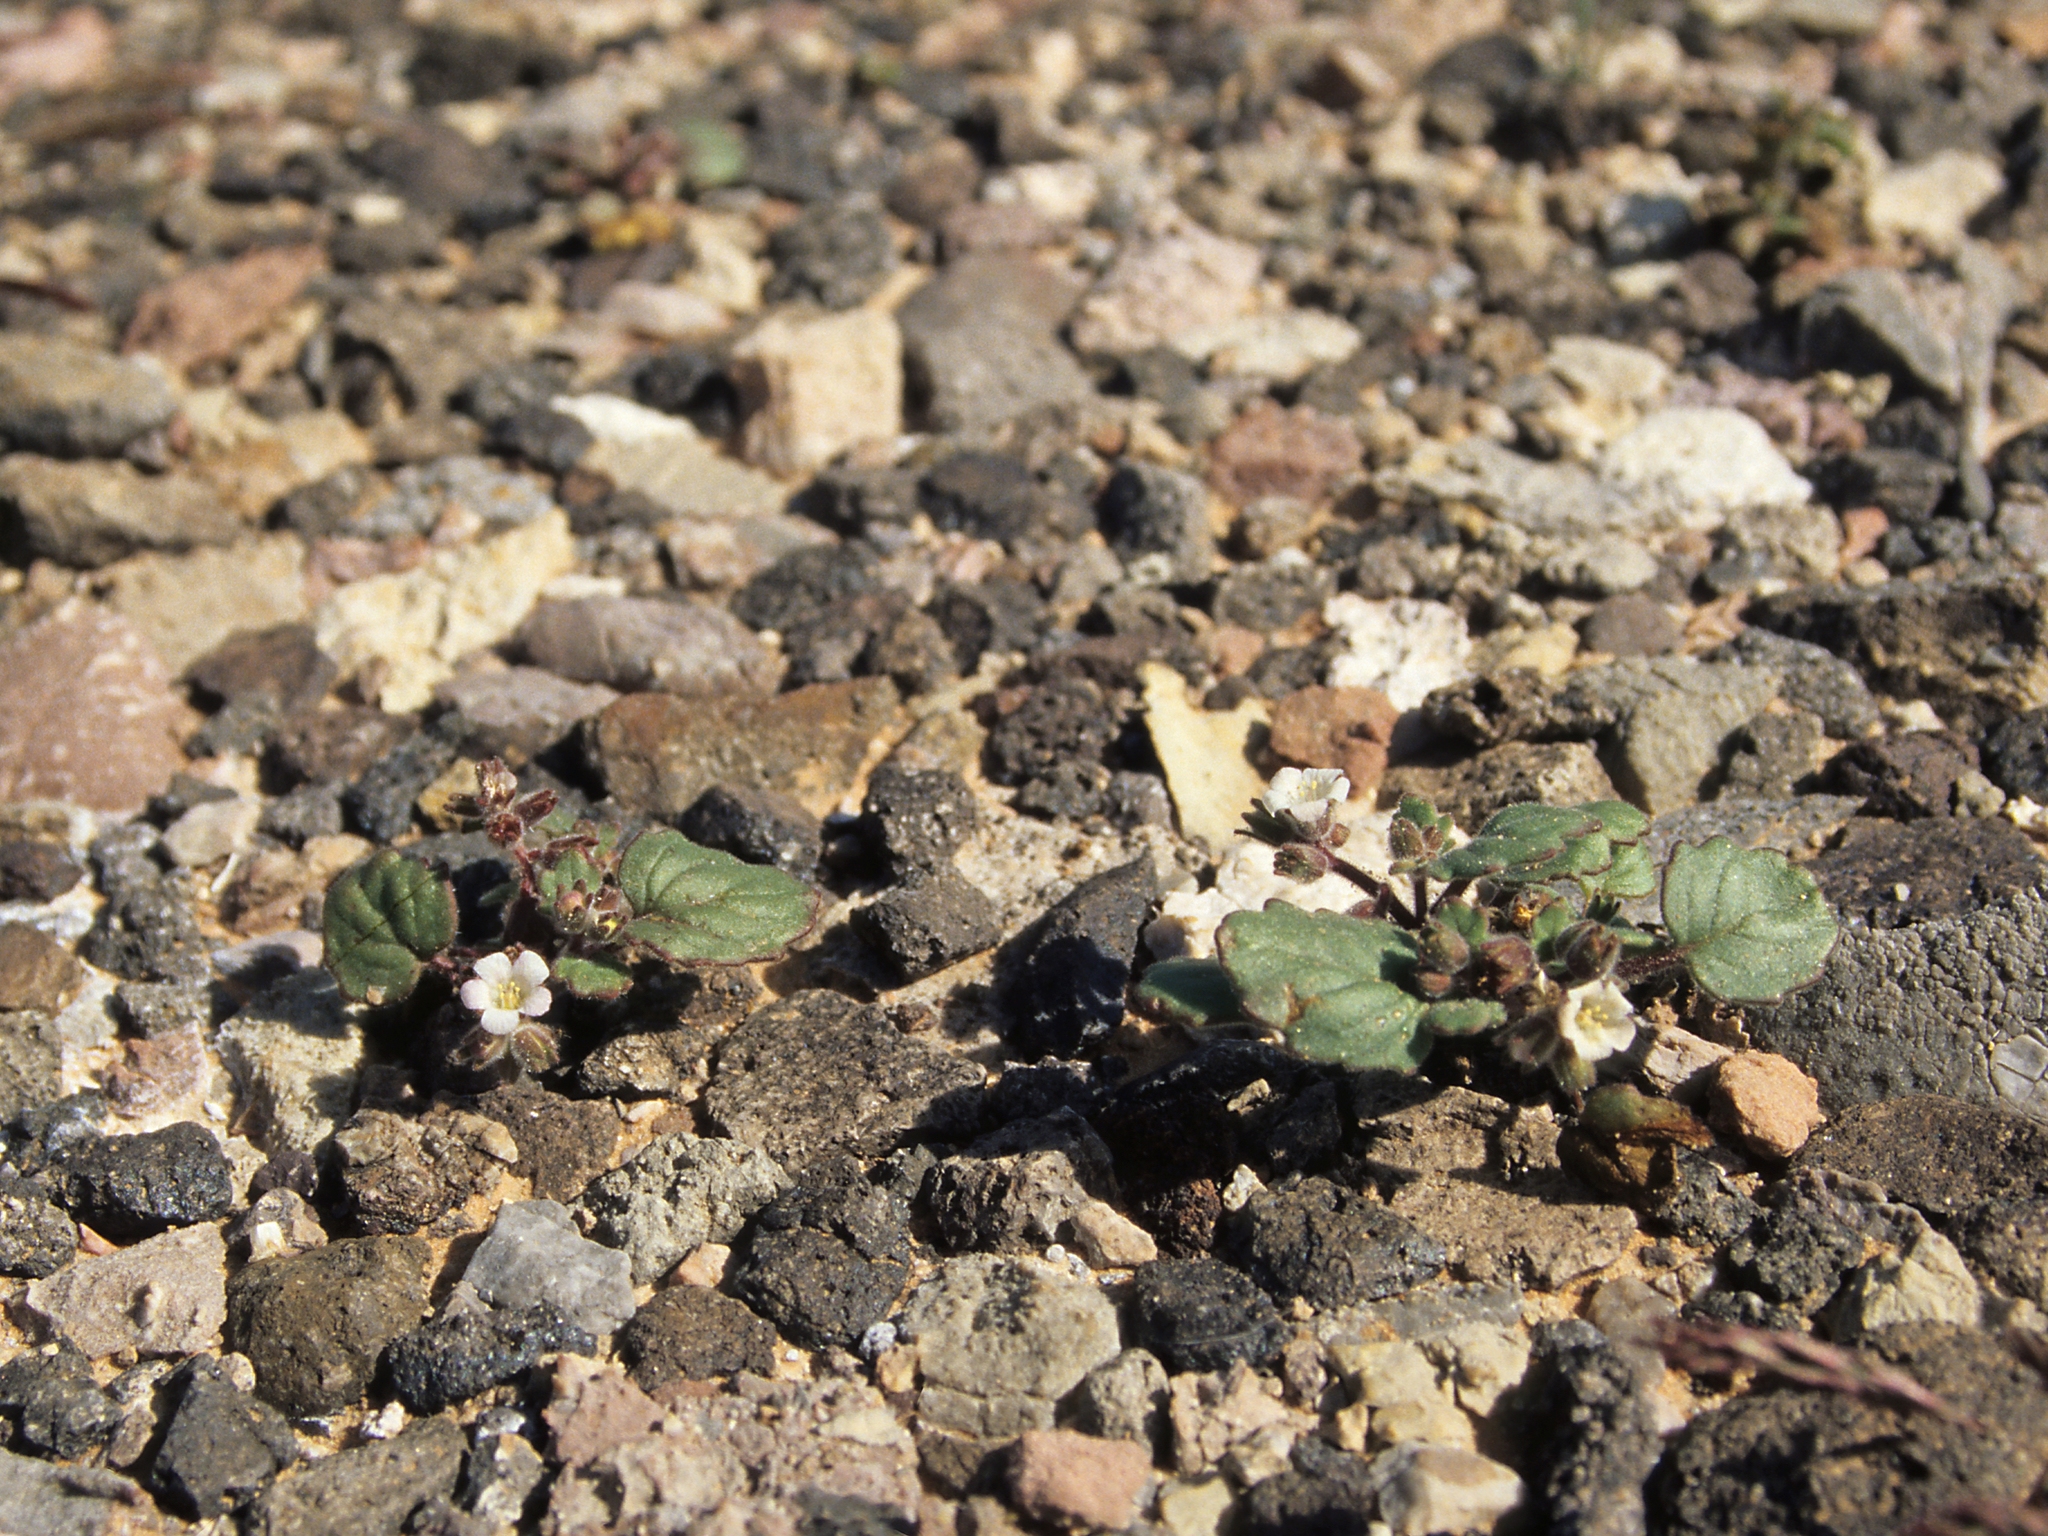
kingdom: Plantae
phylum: Tracheophyta
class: Magnoliopsida
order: Boraginales
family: Hydrophyllaceae
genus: Phacelia
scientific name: Phacelia neglecta
